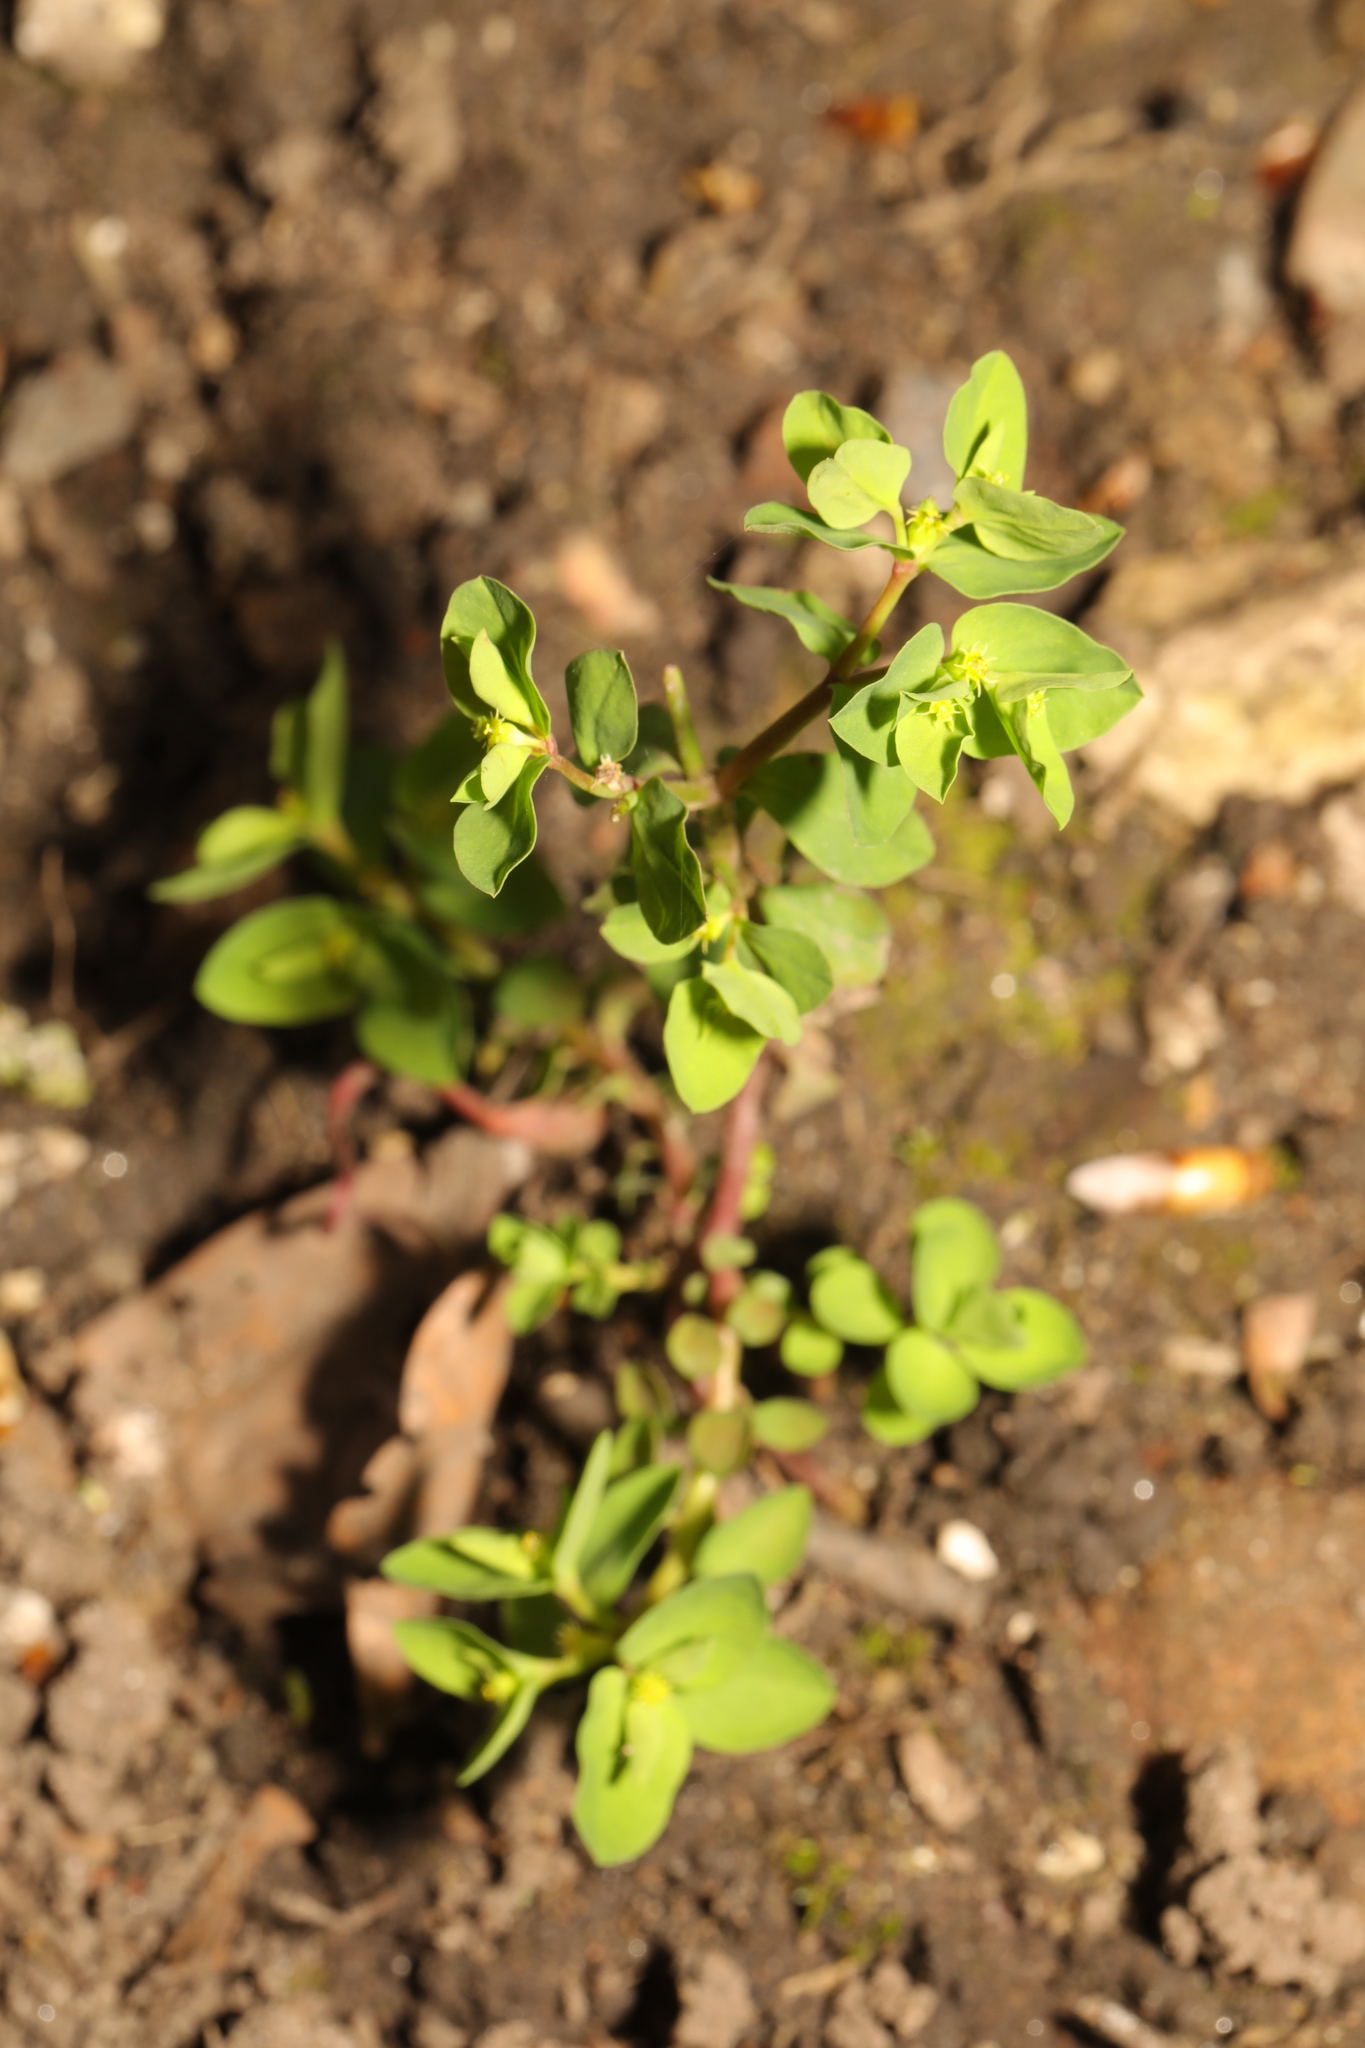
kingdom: Plantae
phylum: Tracheophyta
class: Magnoliopsida
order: Malpighiales
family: Euphorbiaceae
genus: Euphorbia
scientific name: Euphorbia peplus
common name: Petty spurge
